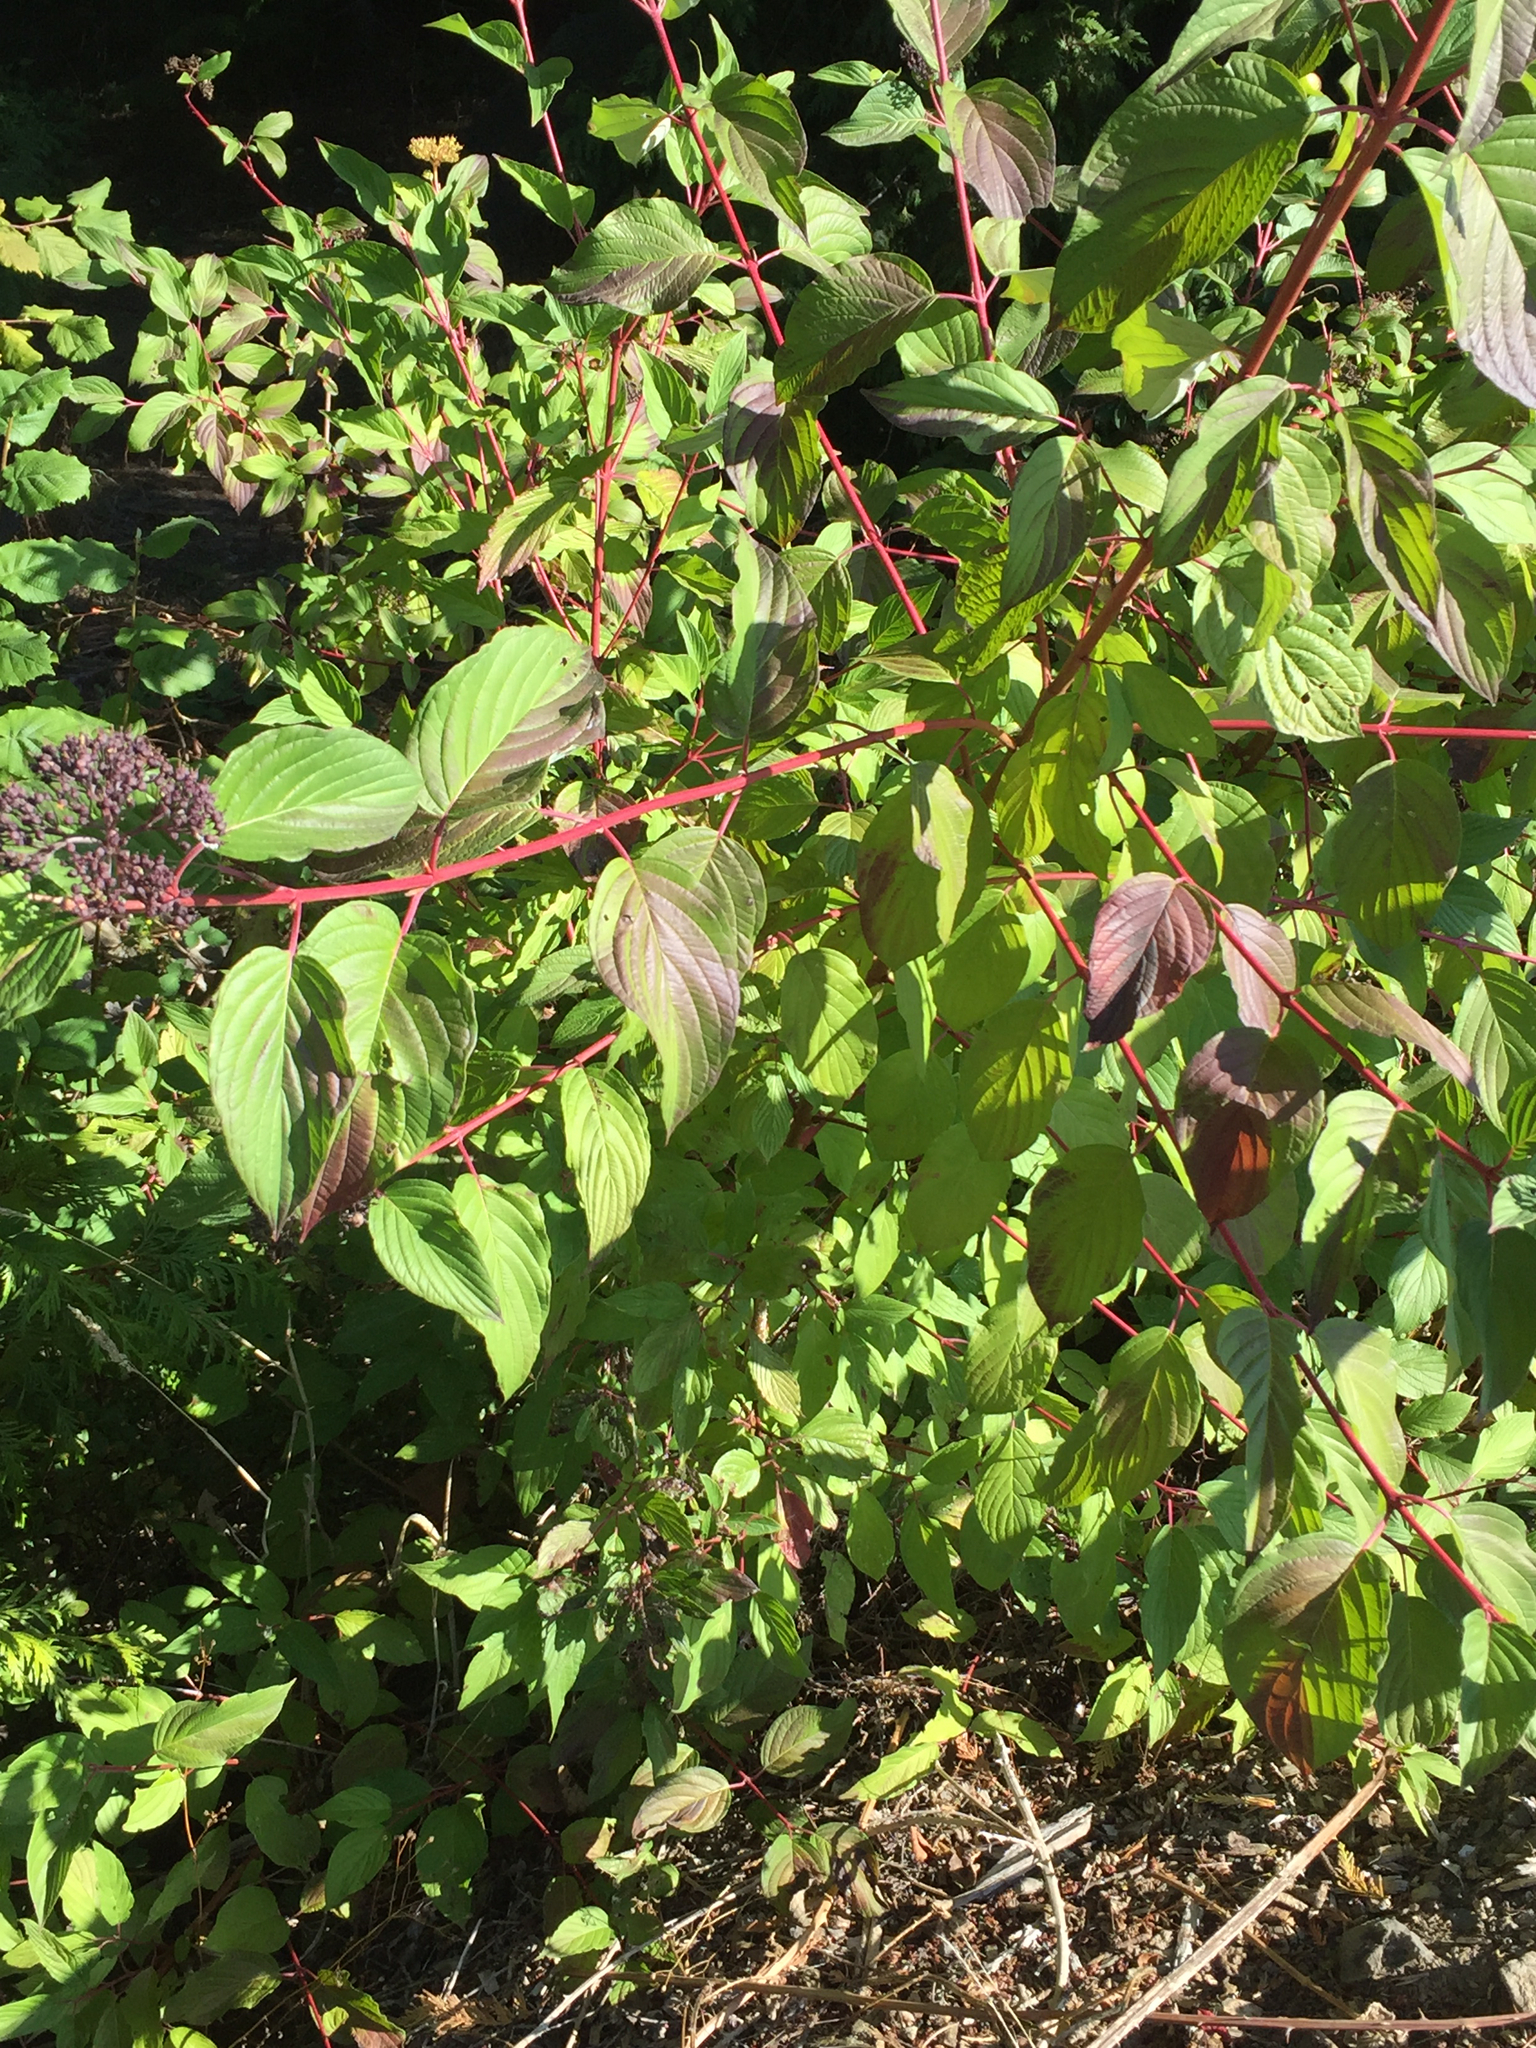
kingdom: Plantae
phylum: Tracheophyta
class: Magnoliopsida
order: Cornales
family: Cornaceae
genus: Cornus
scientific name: Cornus sericea
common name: Red-osier dogwood
